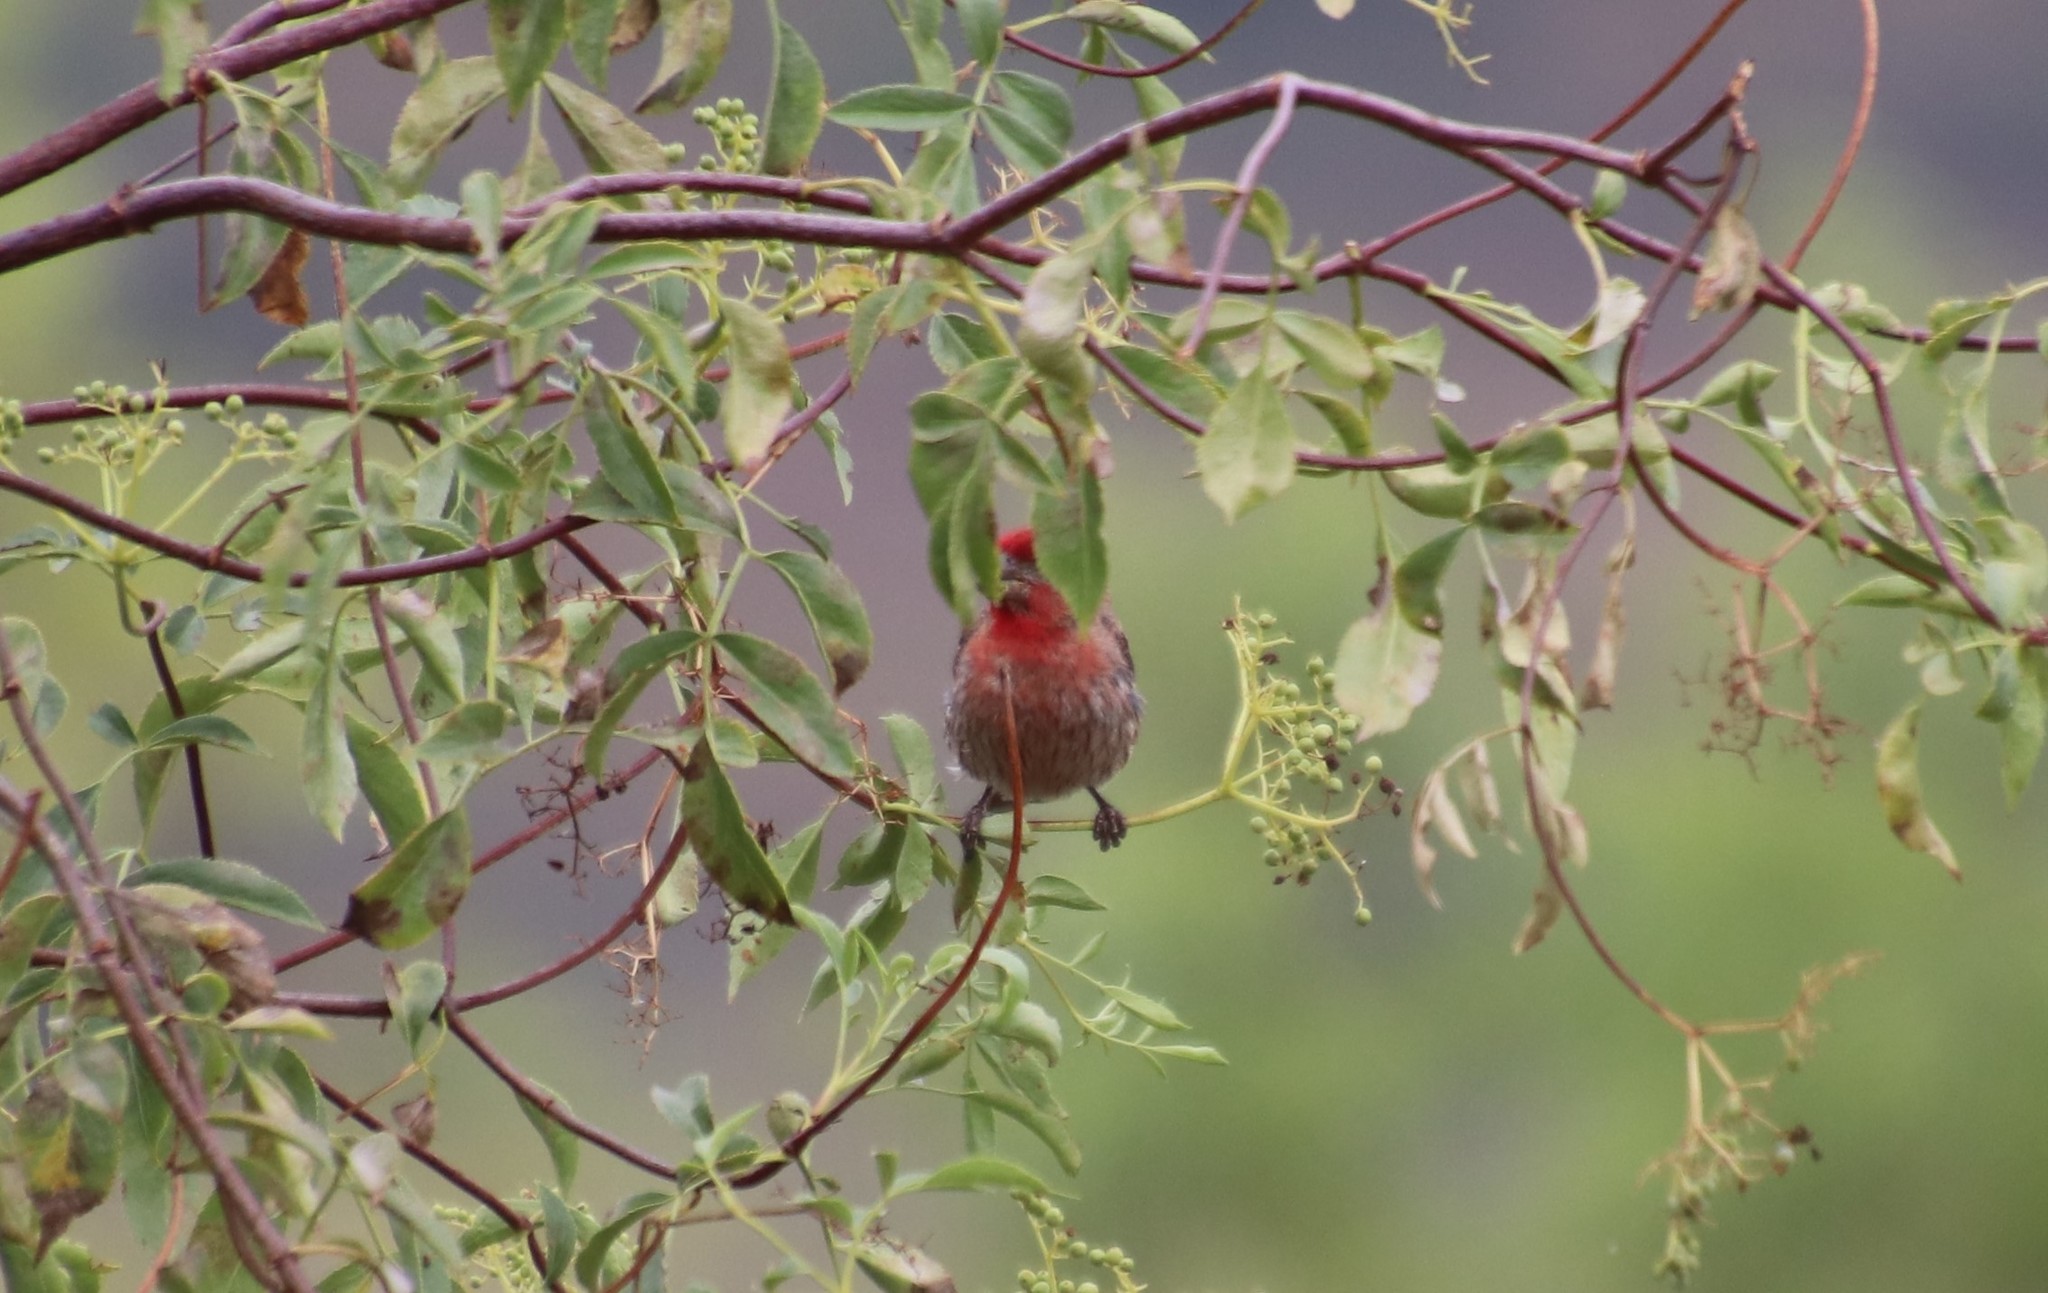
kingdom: Animalia
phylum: Chordata
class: Aves
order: Passeriformes
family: Fringillidae
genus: Haemorhous
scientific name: Haemorhous mexicanus
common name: House finch
